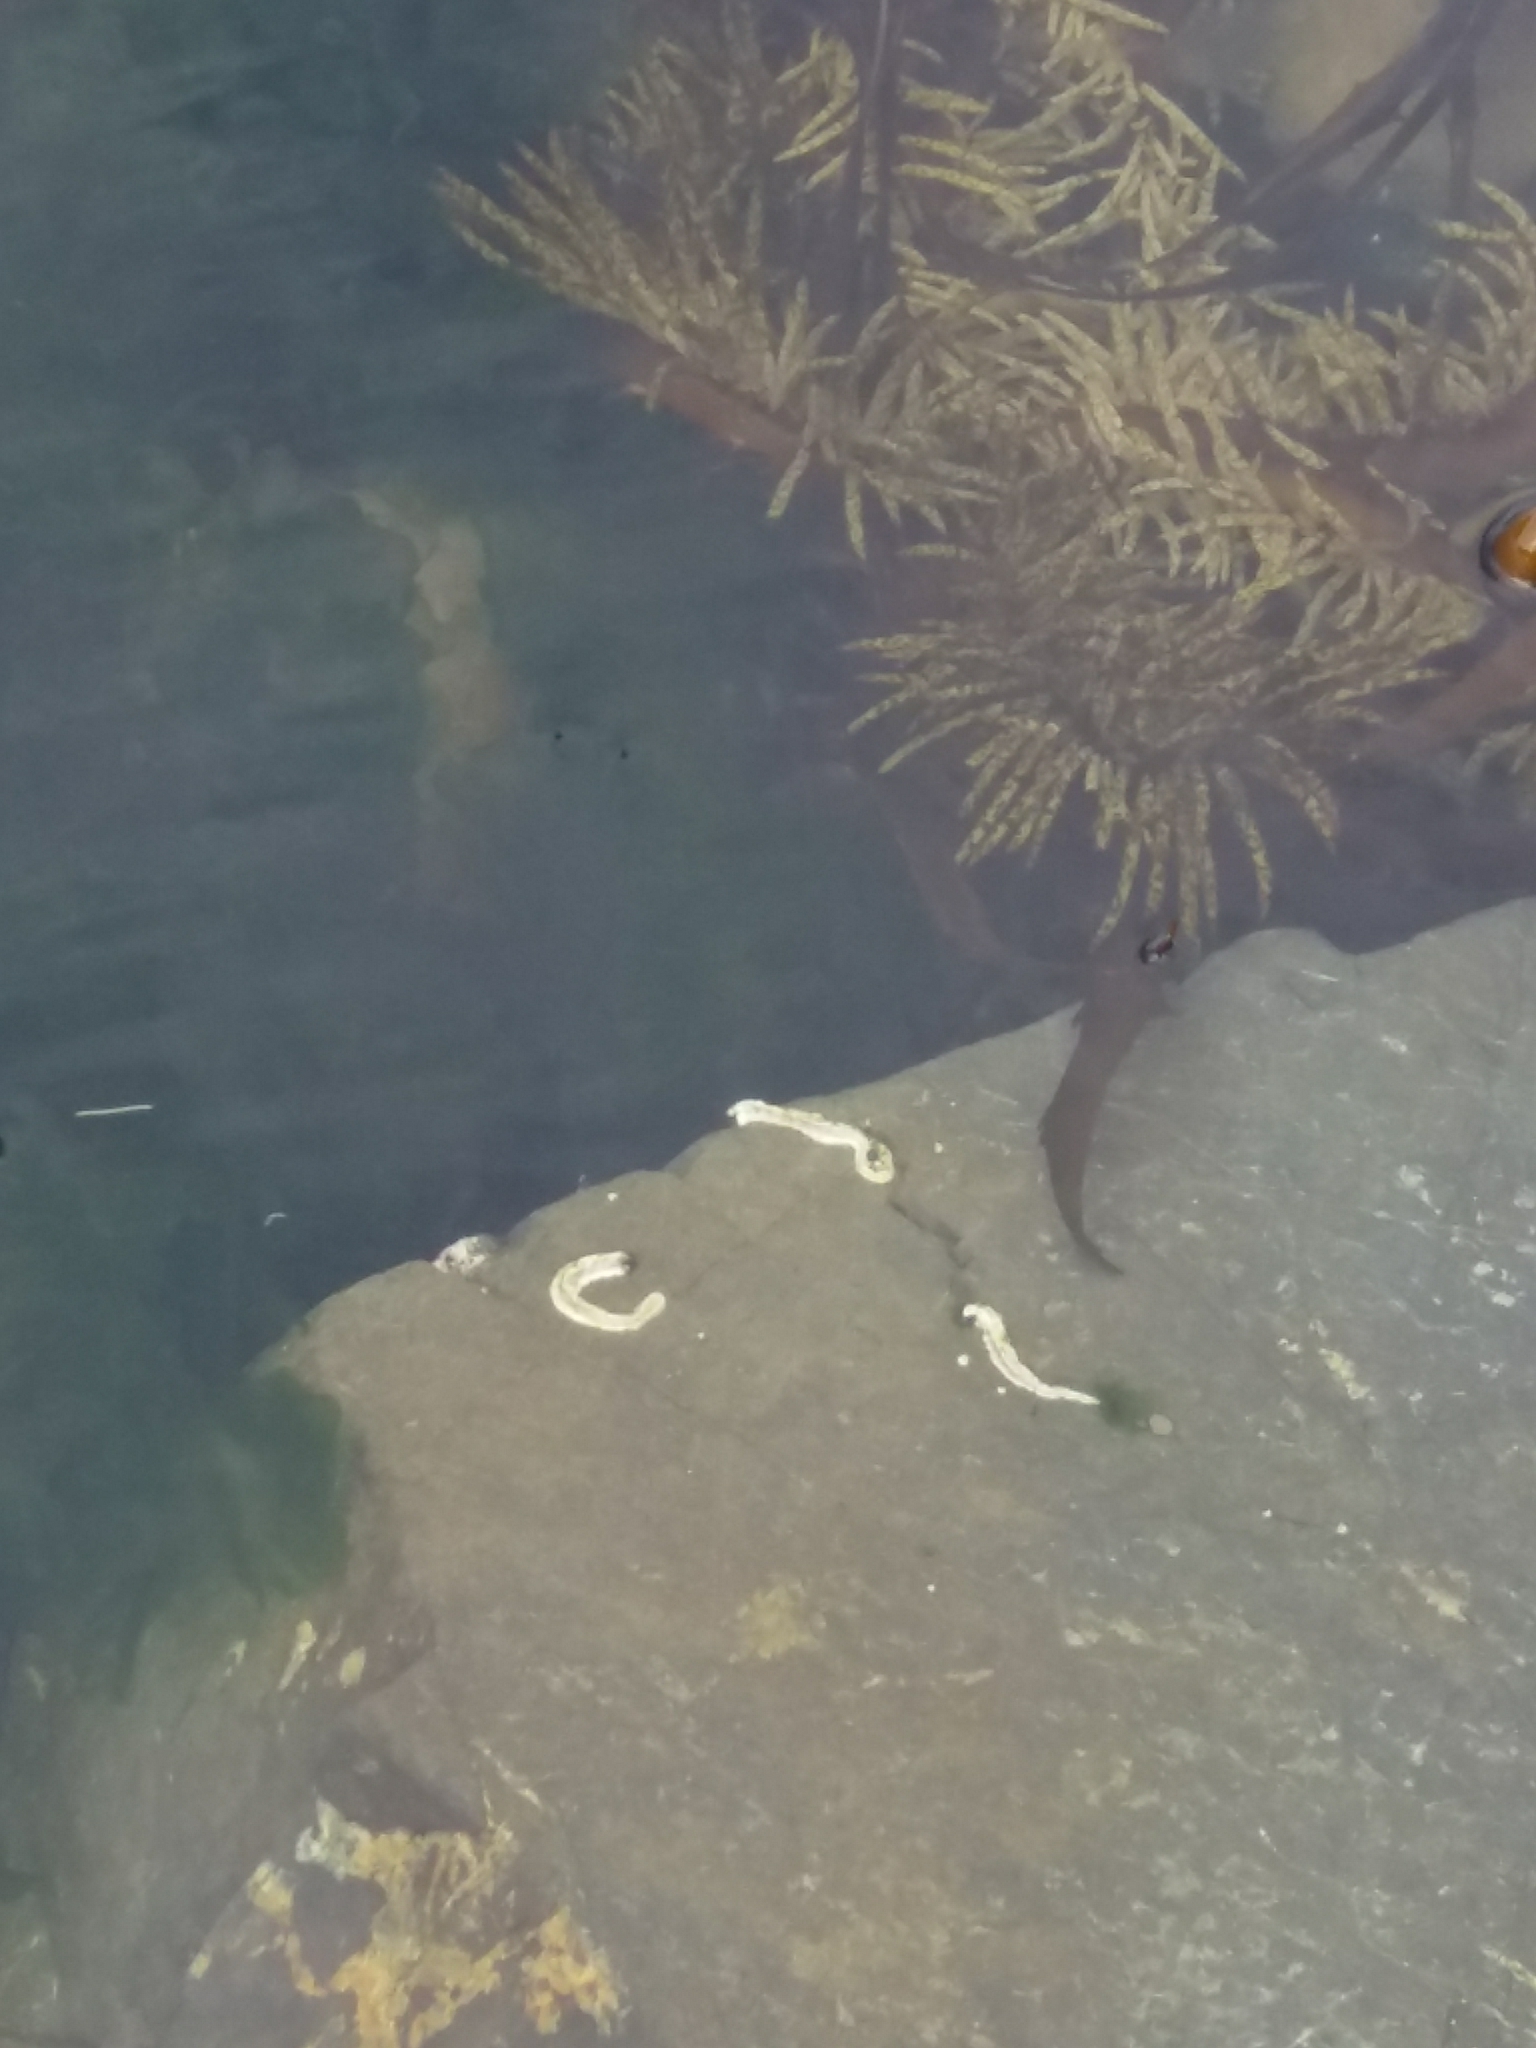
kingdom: Animalia
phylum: Annelida
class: Polychaeta
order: Sabellida
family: Serpulidae
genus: Spirobranchus
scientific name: Spirobranchus cariniferus
